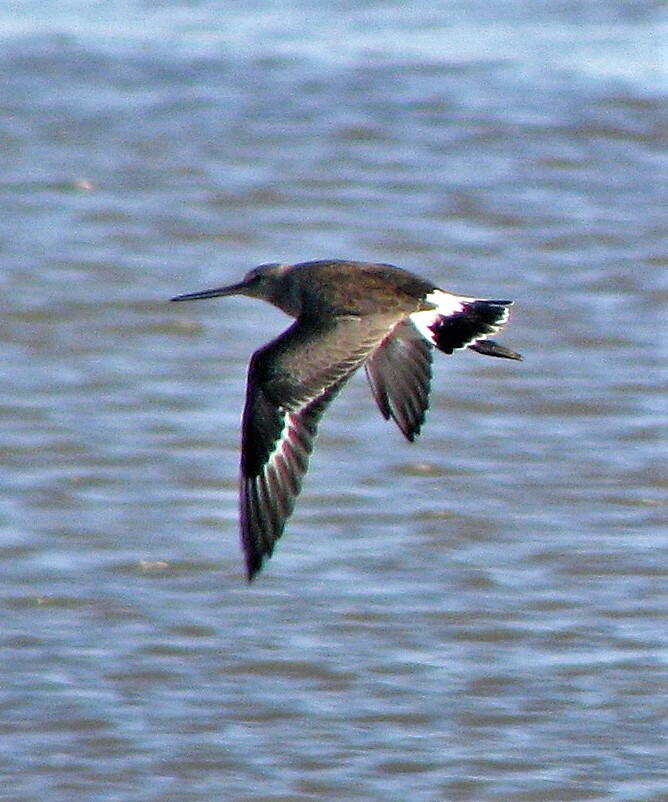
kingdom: Animalia
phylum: Chordata
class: Aves
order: Charadriiformes
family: Scolopacidae
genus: Limosa
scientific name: Limosa haemastica
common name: Hudsonian godwit
